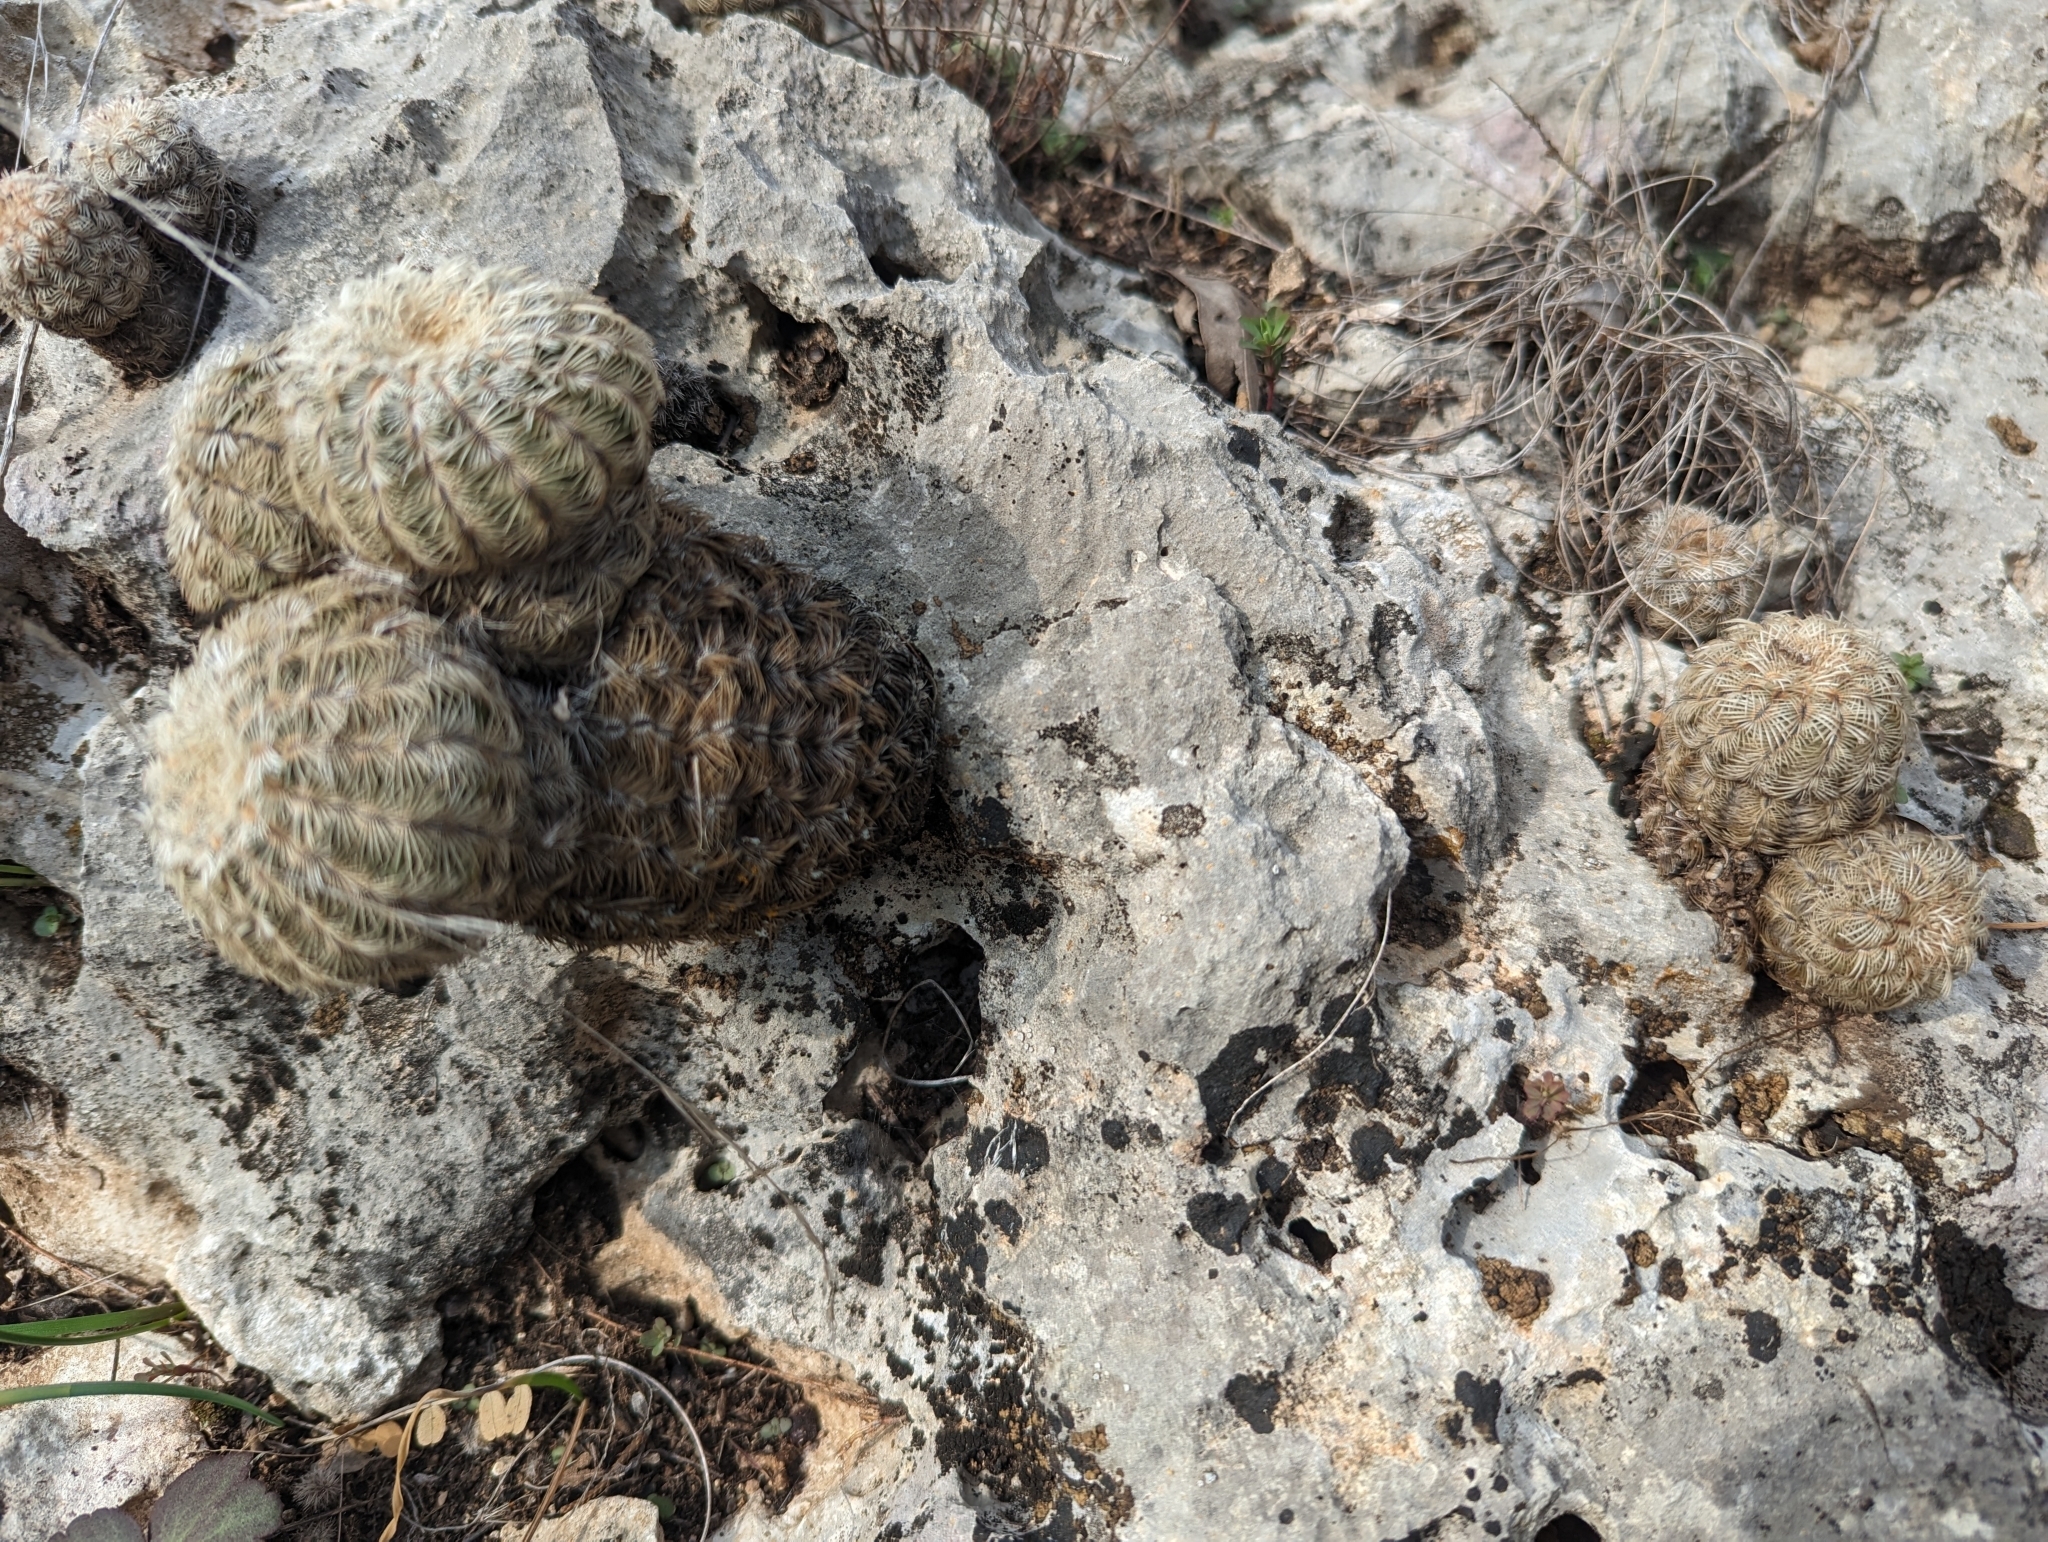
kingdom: Plantae
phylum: Tracheophyta
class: Magnoliopsida
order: Caryophyllales
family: Cactaceae
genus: Echinocereus
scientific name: Echinocereus reichenbachii
